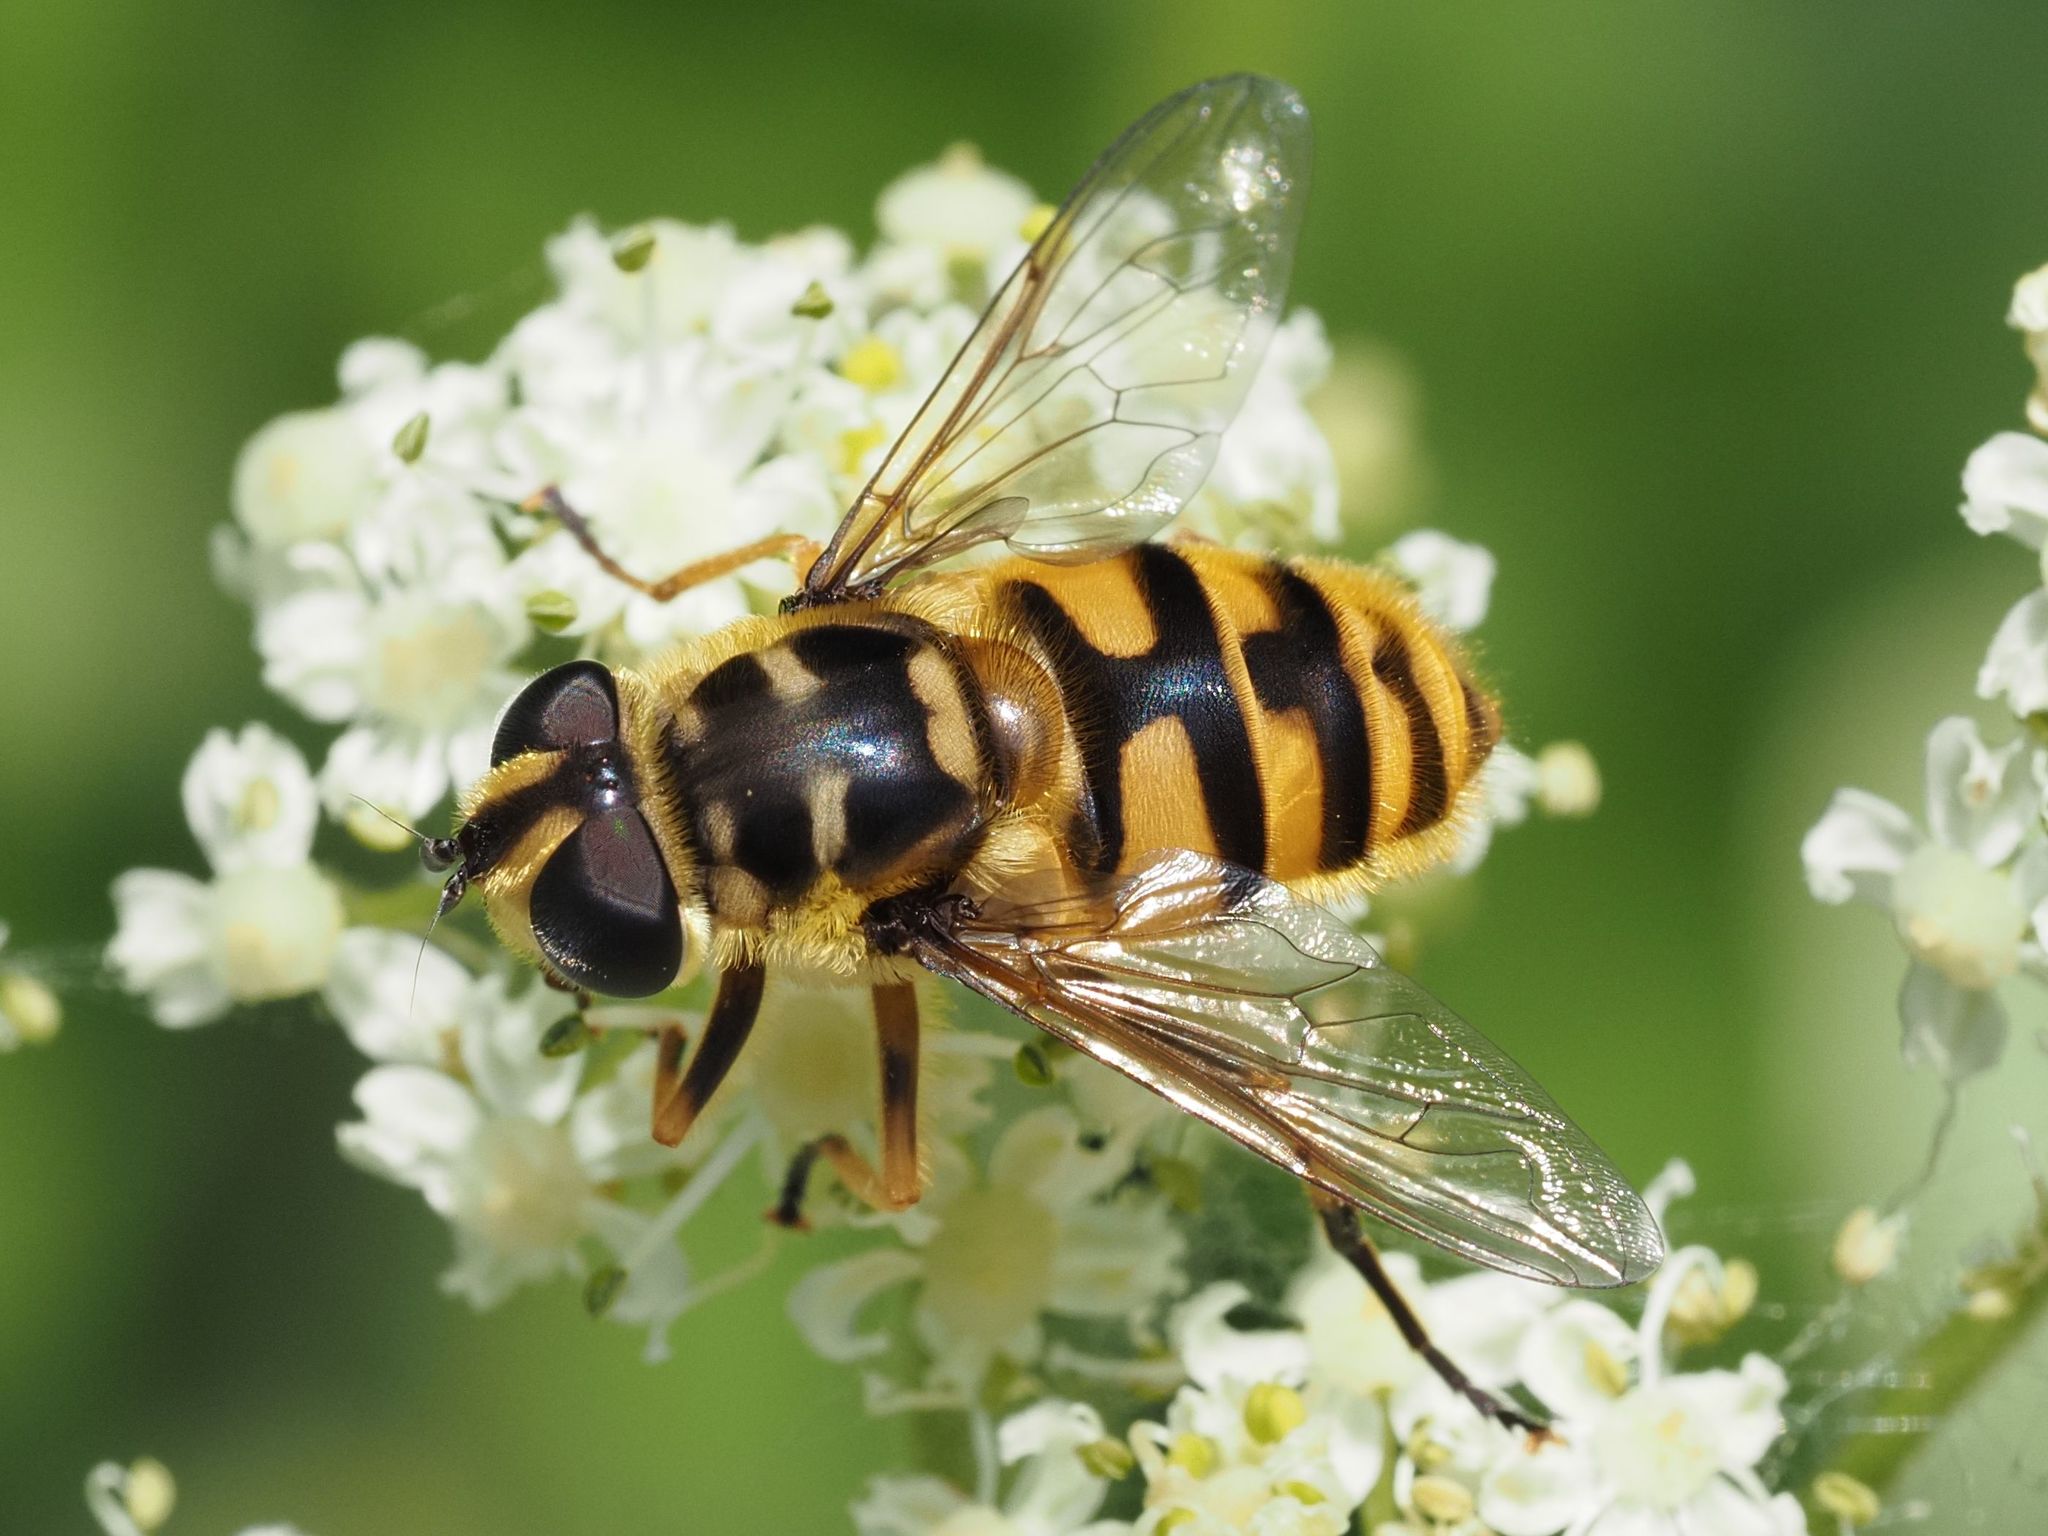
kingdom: Animalia
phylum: Arthropoda
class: Insecta
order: Diptera
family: Syrphidae
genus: Myathropa
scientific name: Myathropa florea
